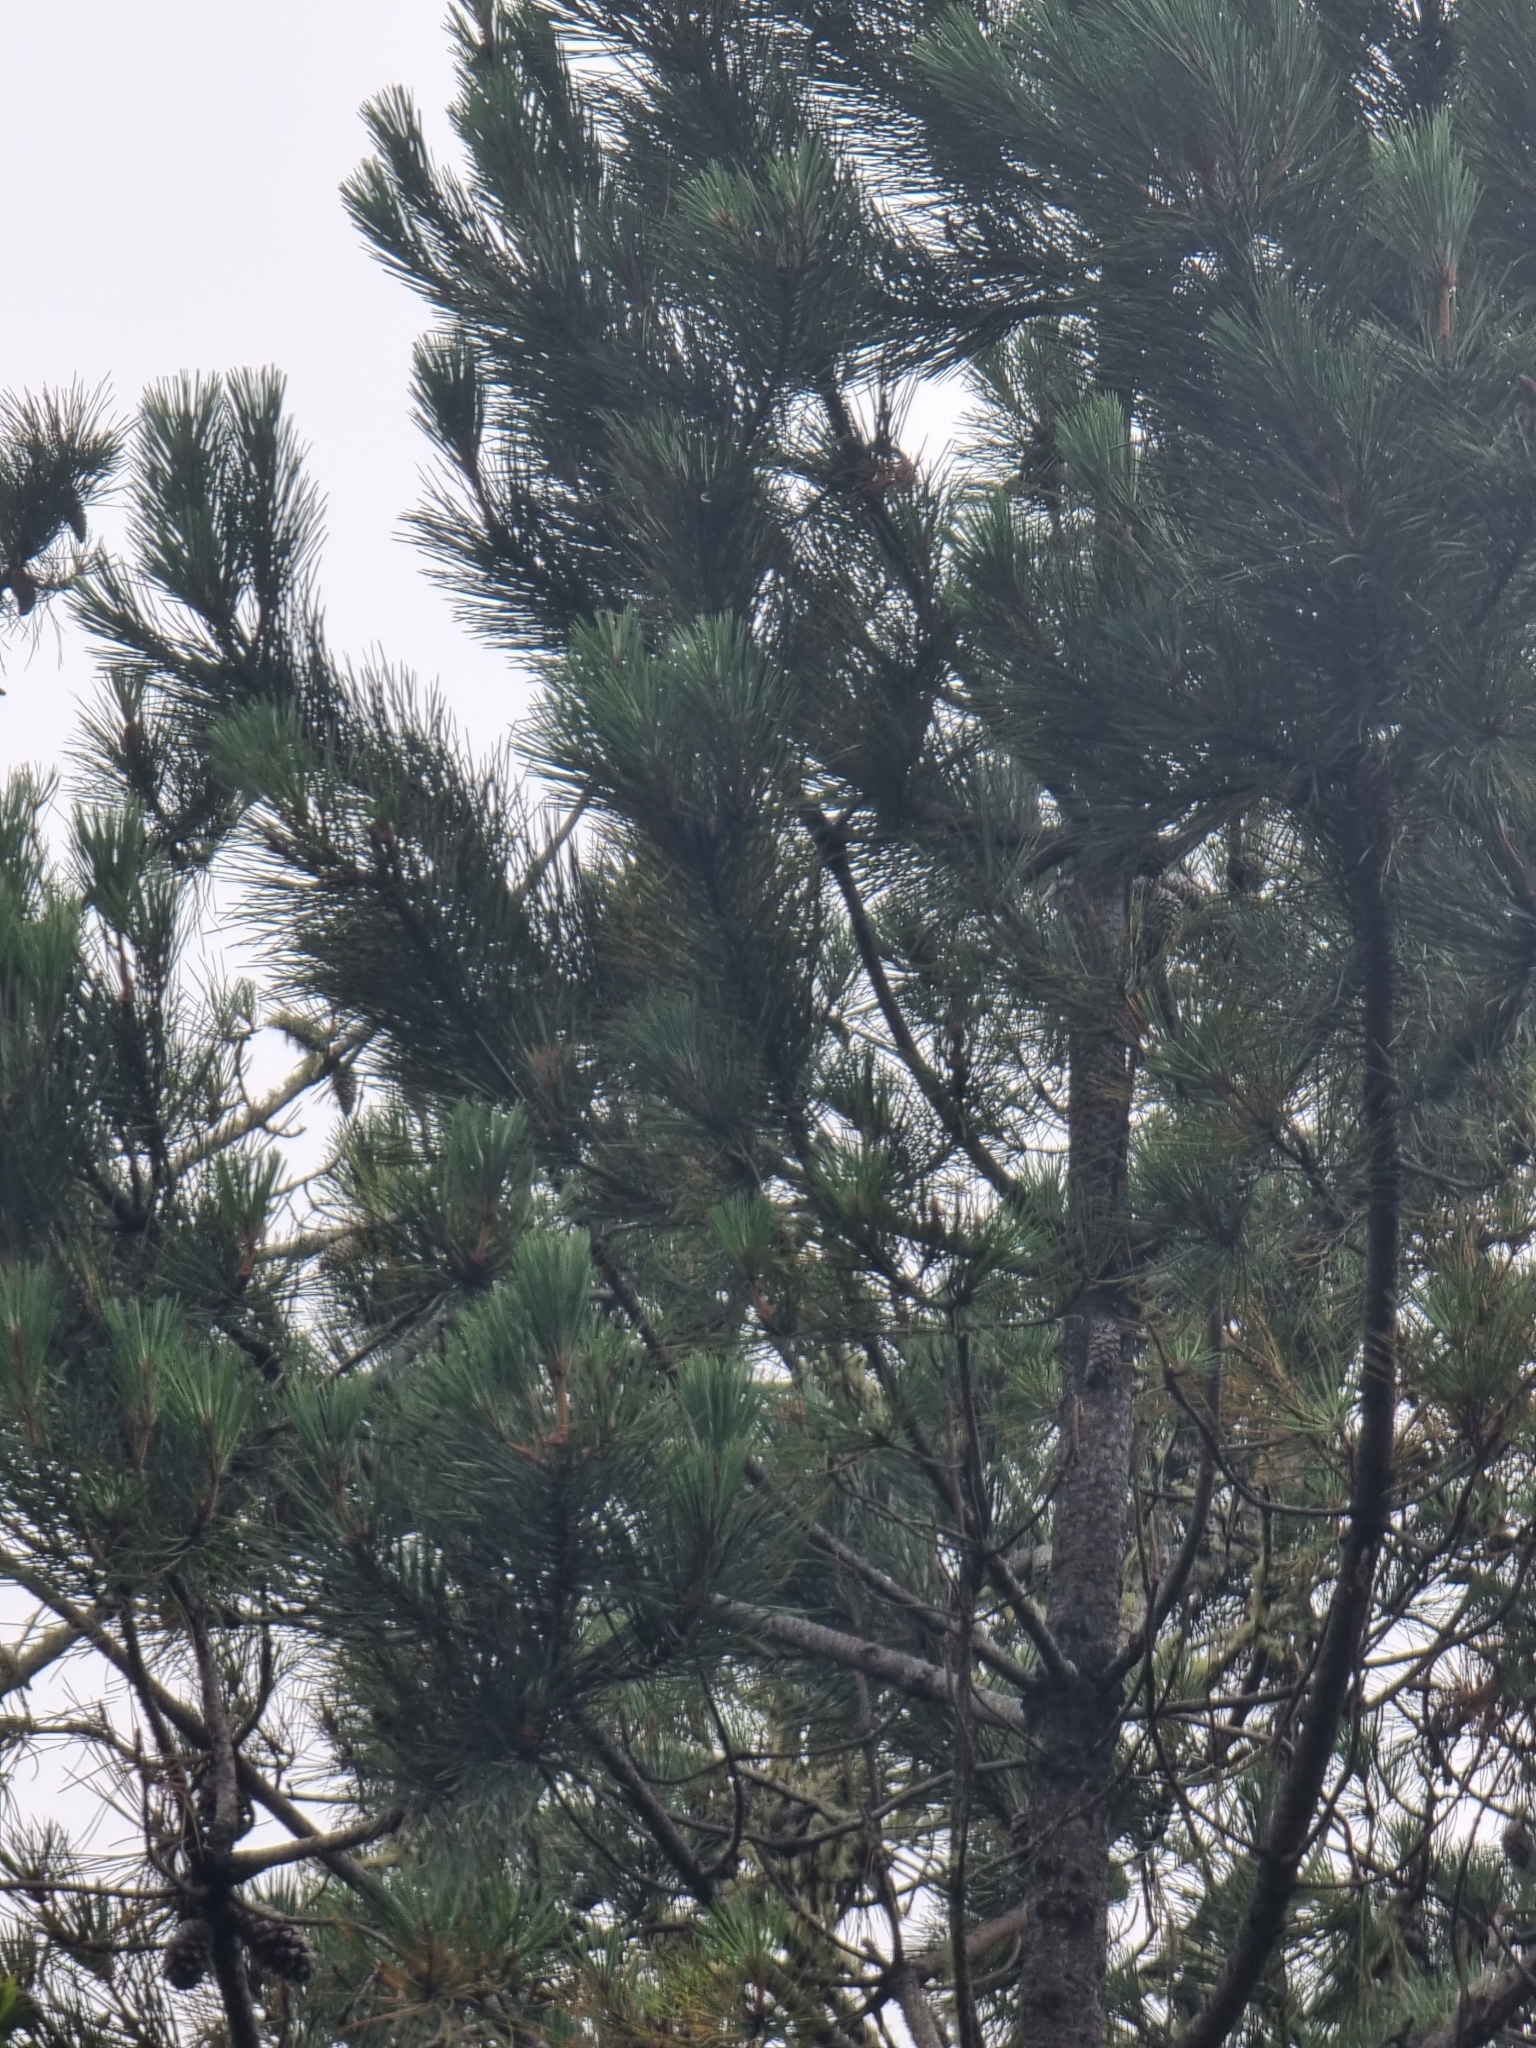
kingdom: Plantae
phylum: Tracheophyta
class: Pinopsida
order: Pinales
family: Pinaceae
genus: Pinus
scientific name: Pinus pinaster
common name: Maritime pine
